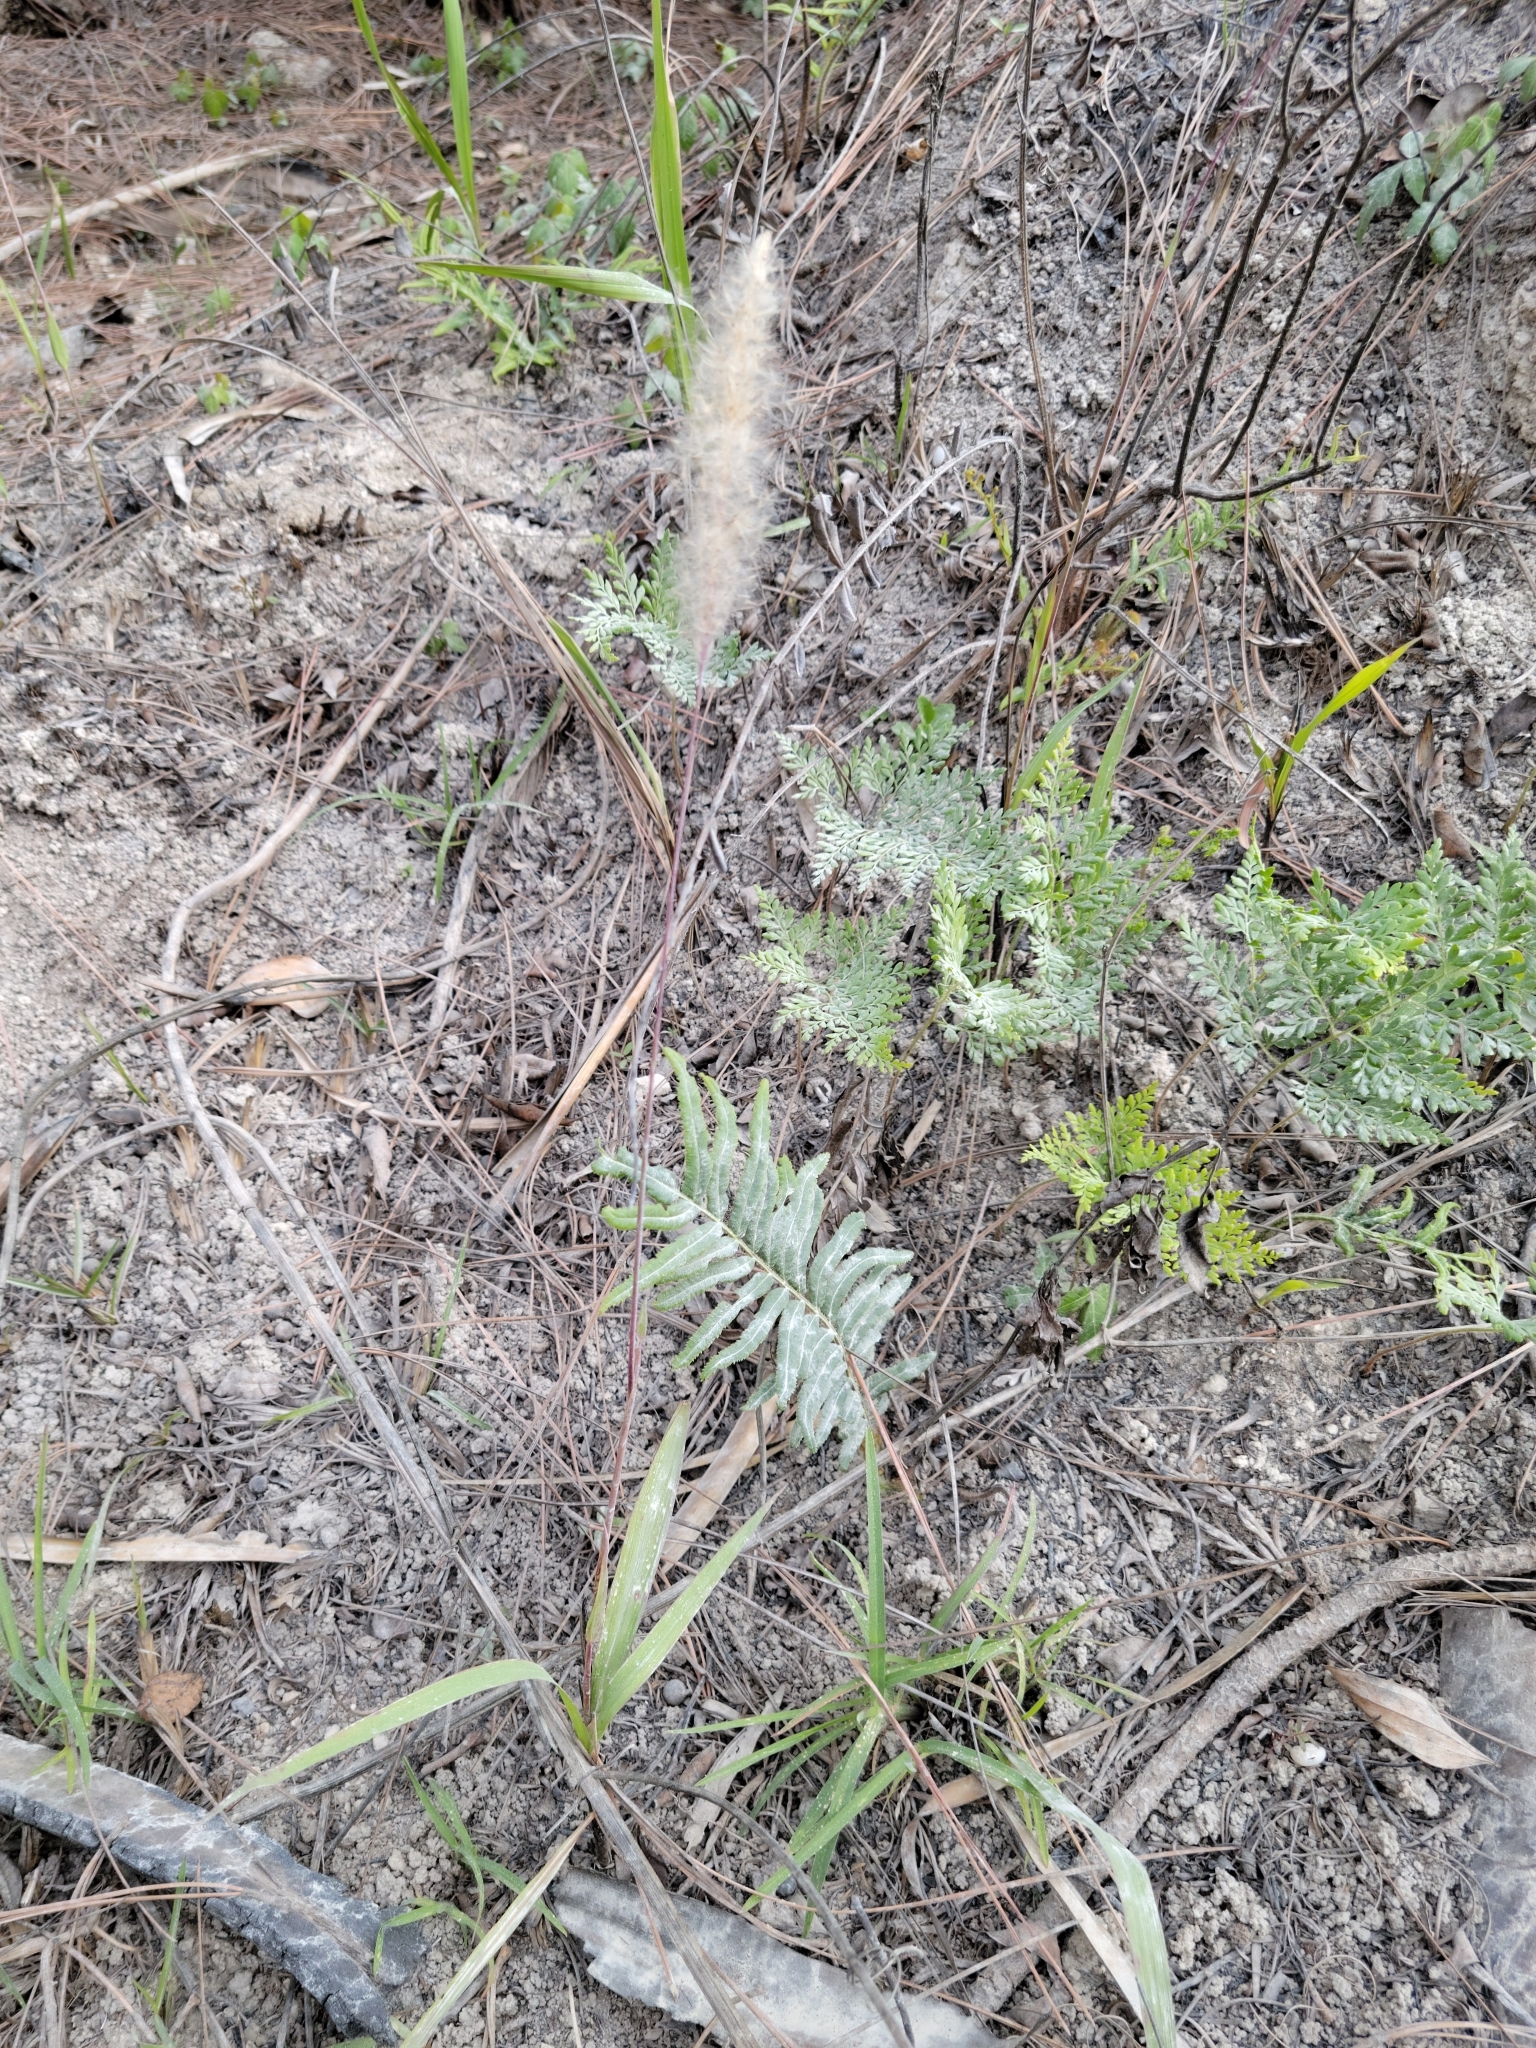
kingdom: Plantae
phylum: Tracheophyta
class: Liliopsida
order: Poales
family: Poaceae
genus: Imperata
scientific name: Imperata cylindrica
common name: Cogongrass
